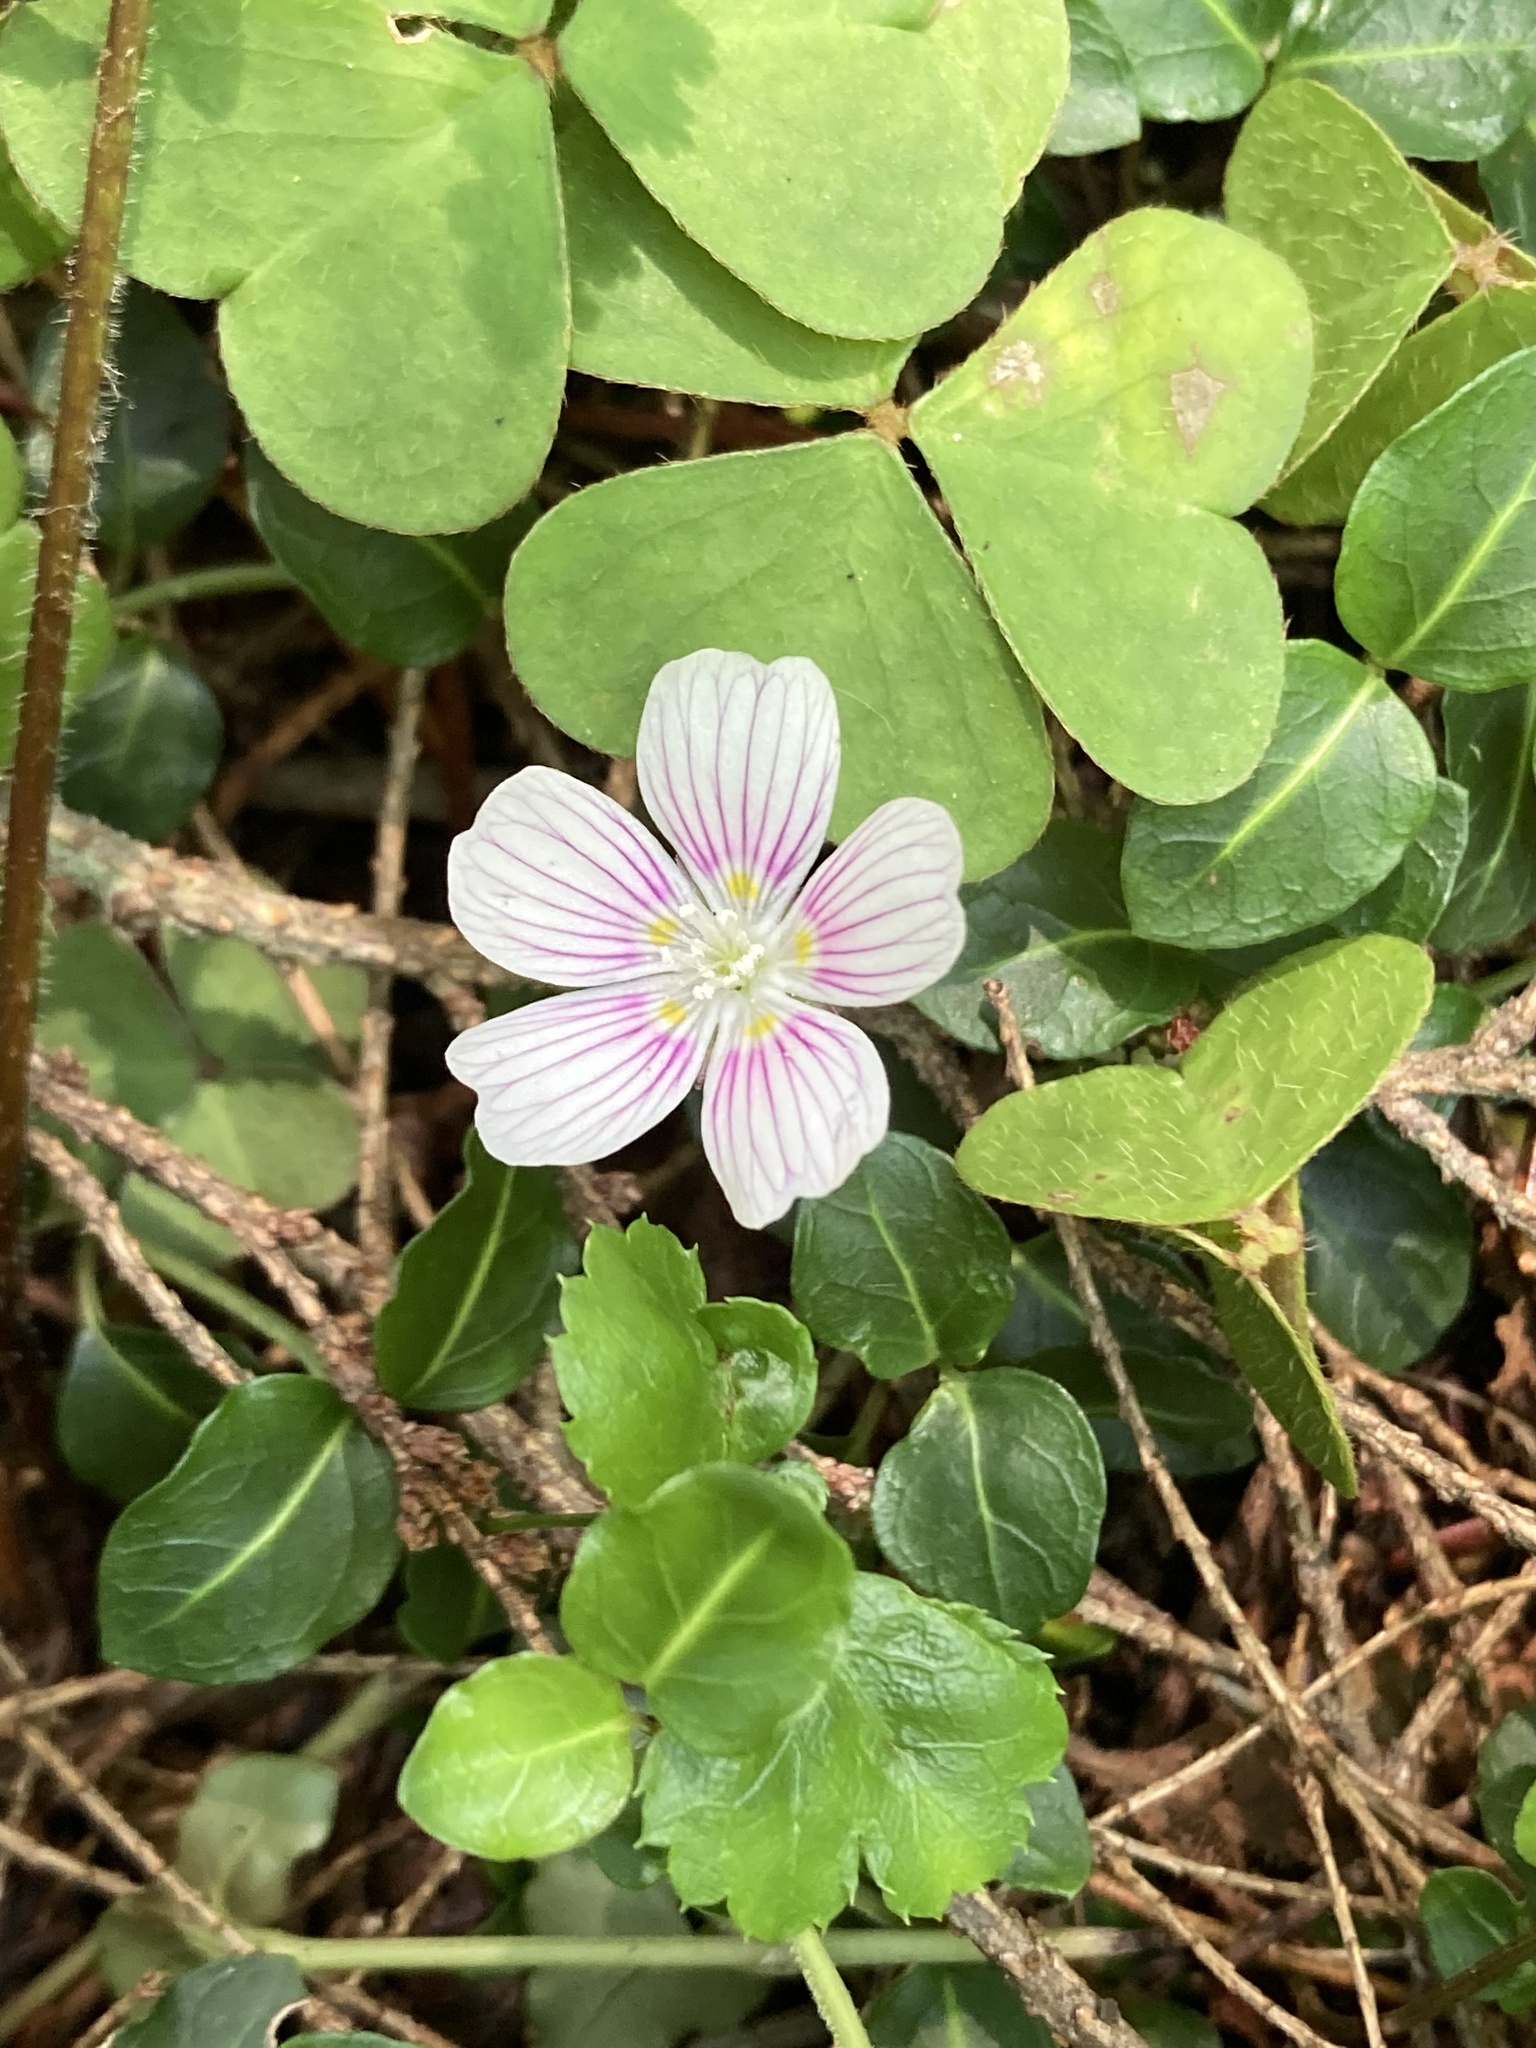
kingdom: Plantae
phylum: Tracheophyta
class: Magnoliopsida
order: Oxalidales
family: Oxalidaceae
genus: Oxalis
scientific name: Oxalis montana
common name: American wood-sorrel
